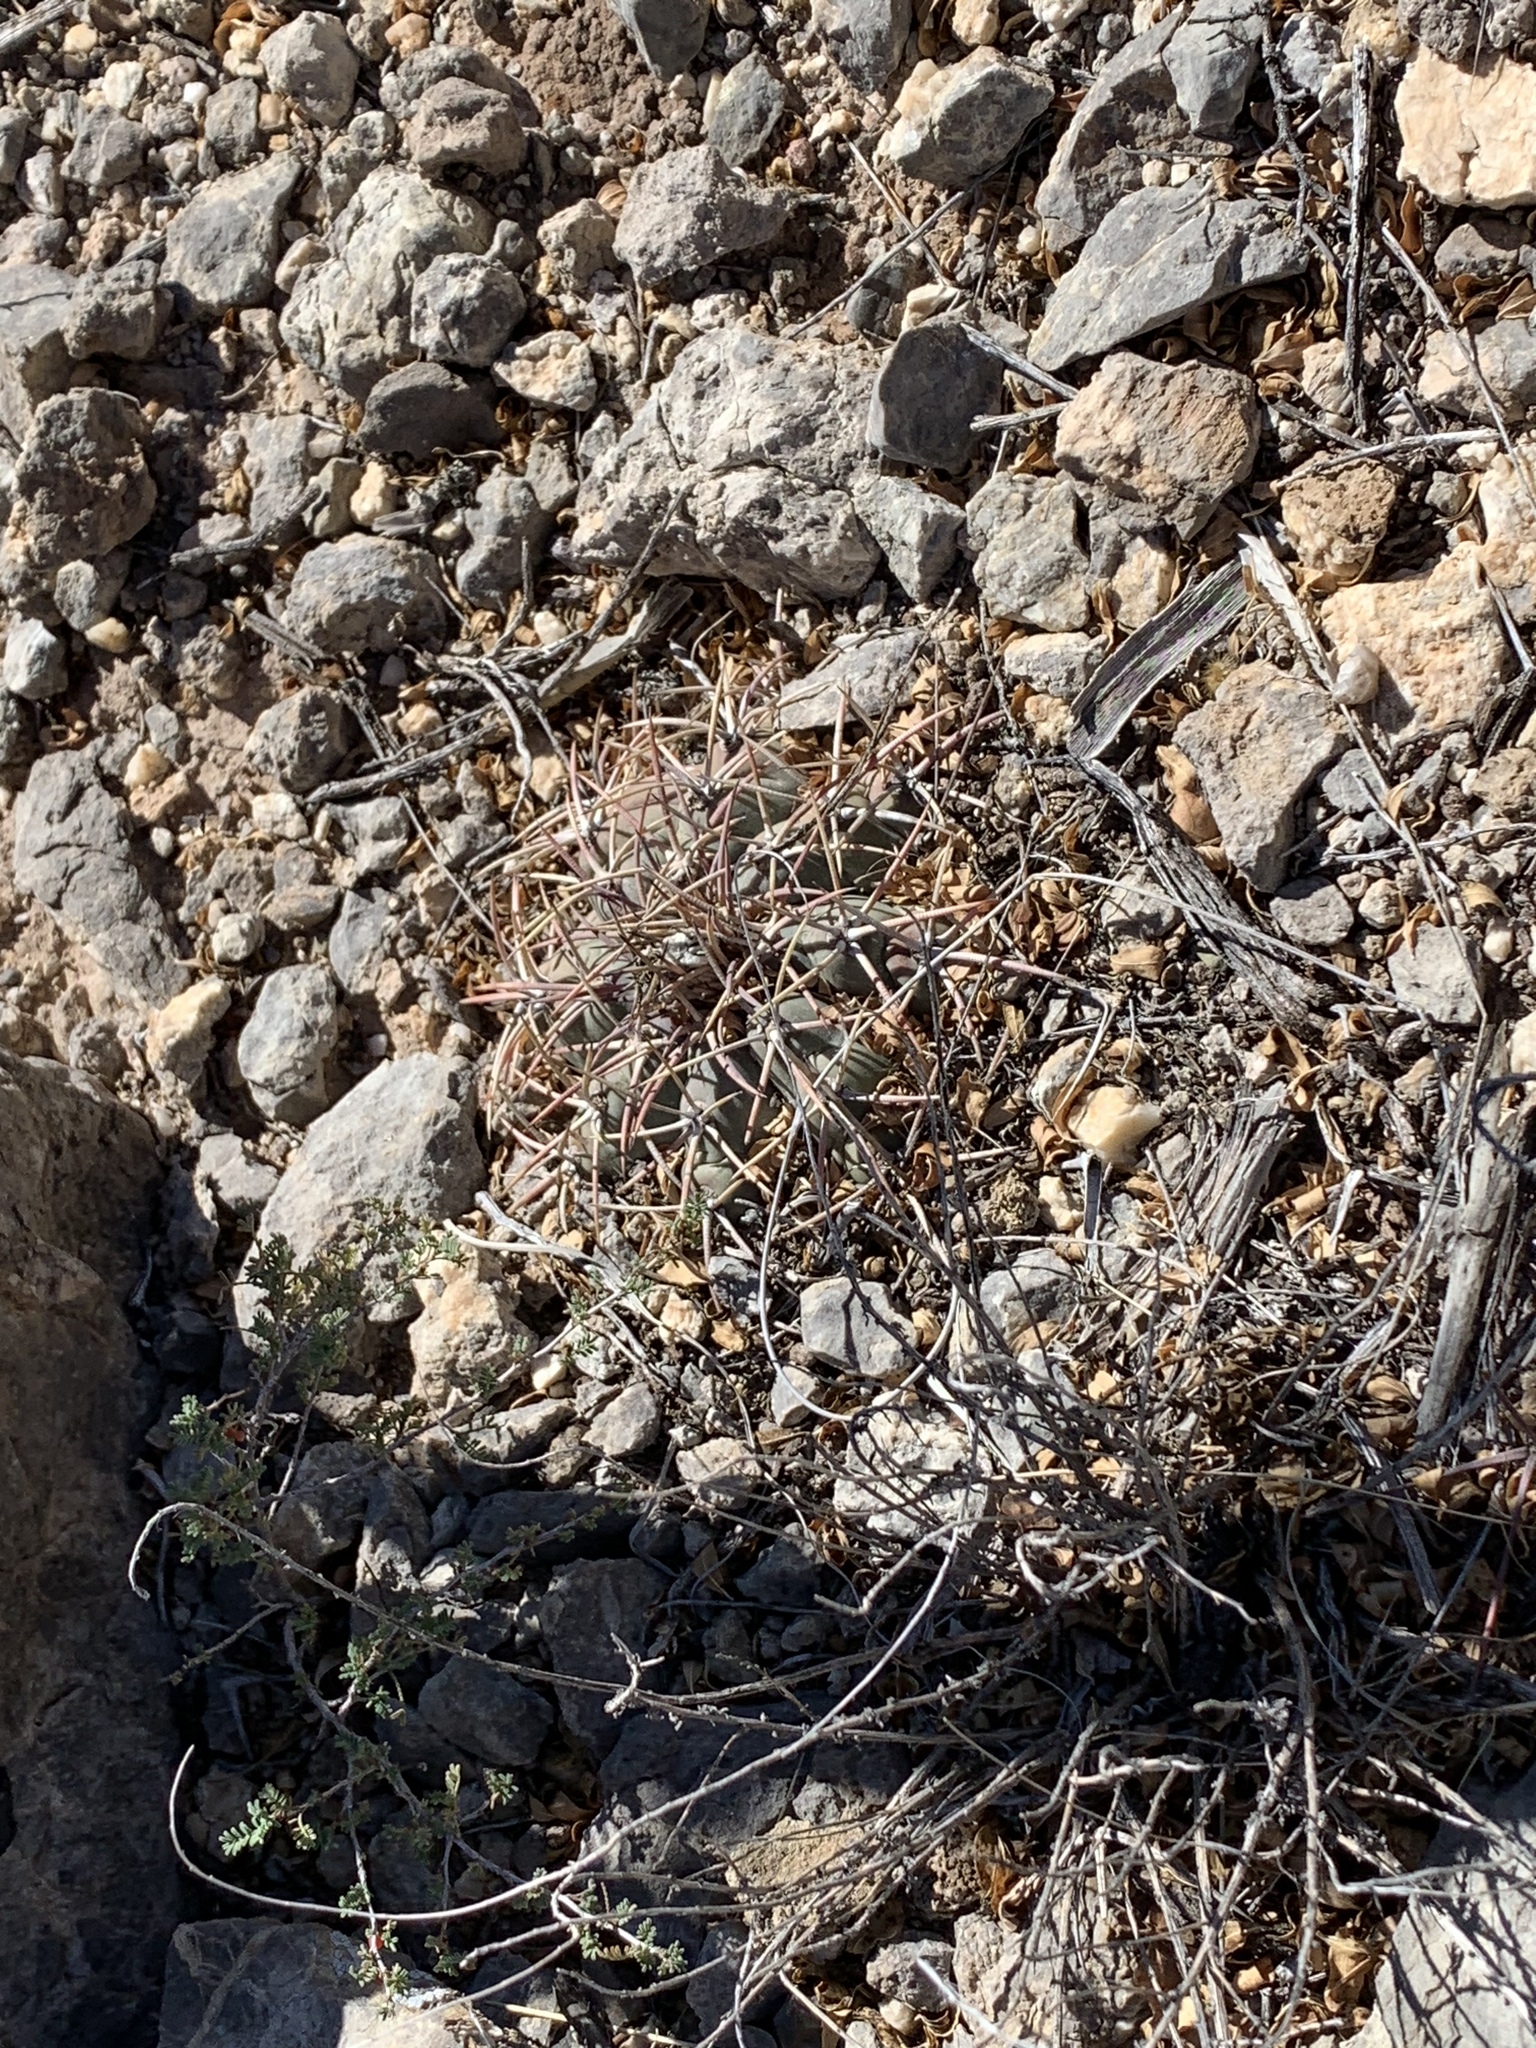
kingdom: Plantae
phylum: Tracheophyta
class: Magnoliopsida
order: Caryophyllales
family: Cactaceae
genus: Echinocactus
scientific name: Echinocactus horizonthalonius
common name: Devilshead
